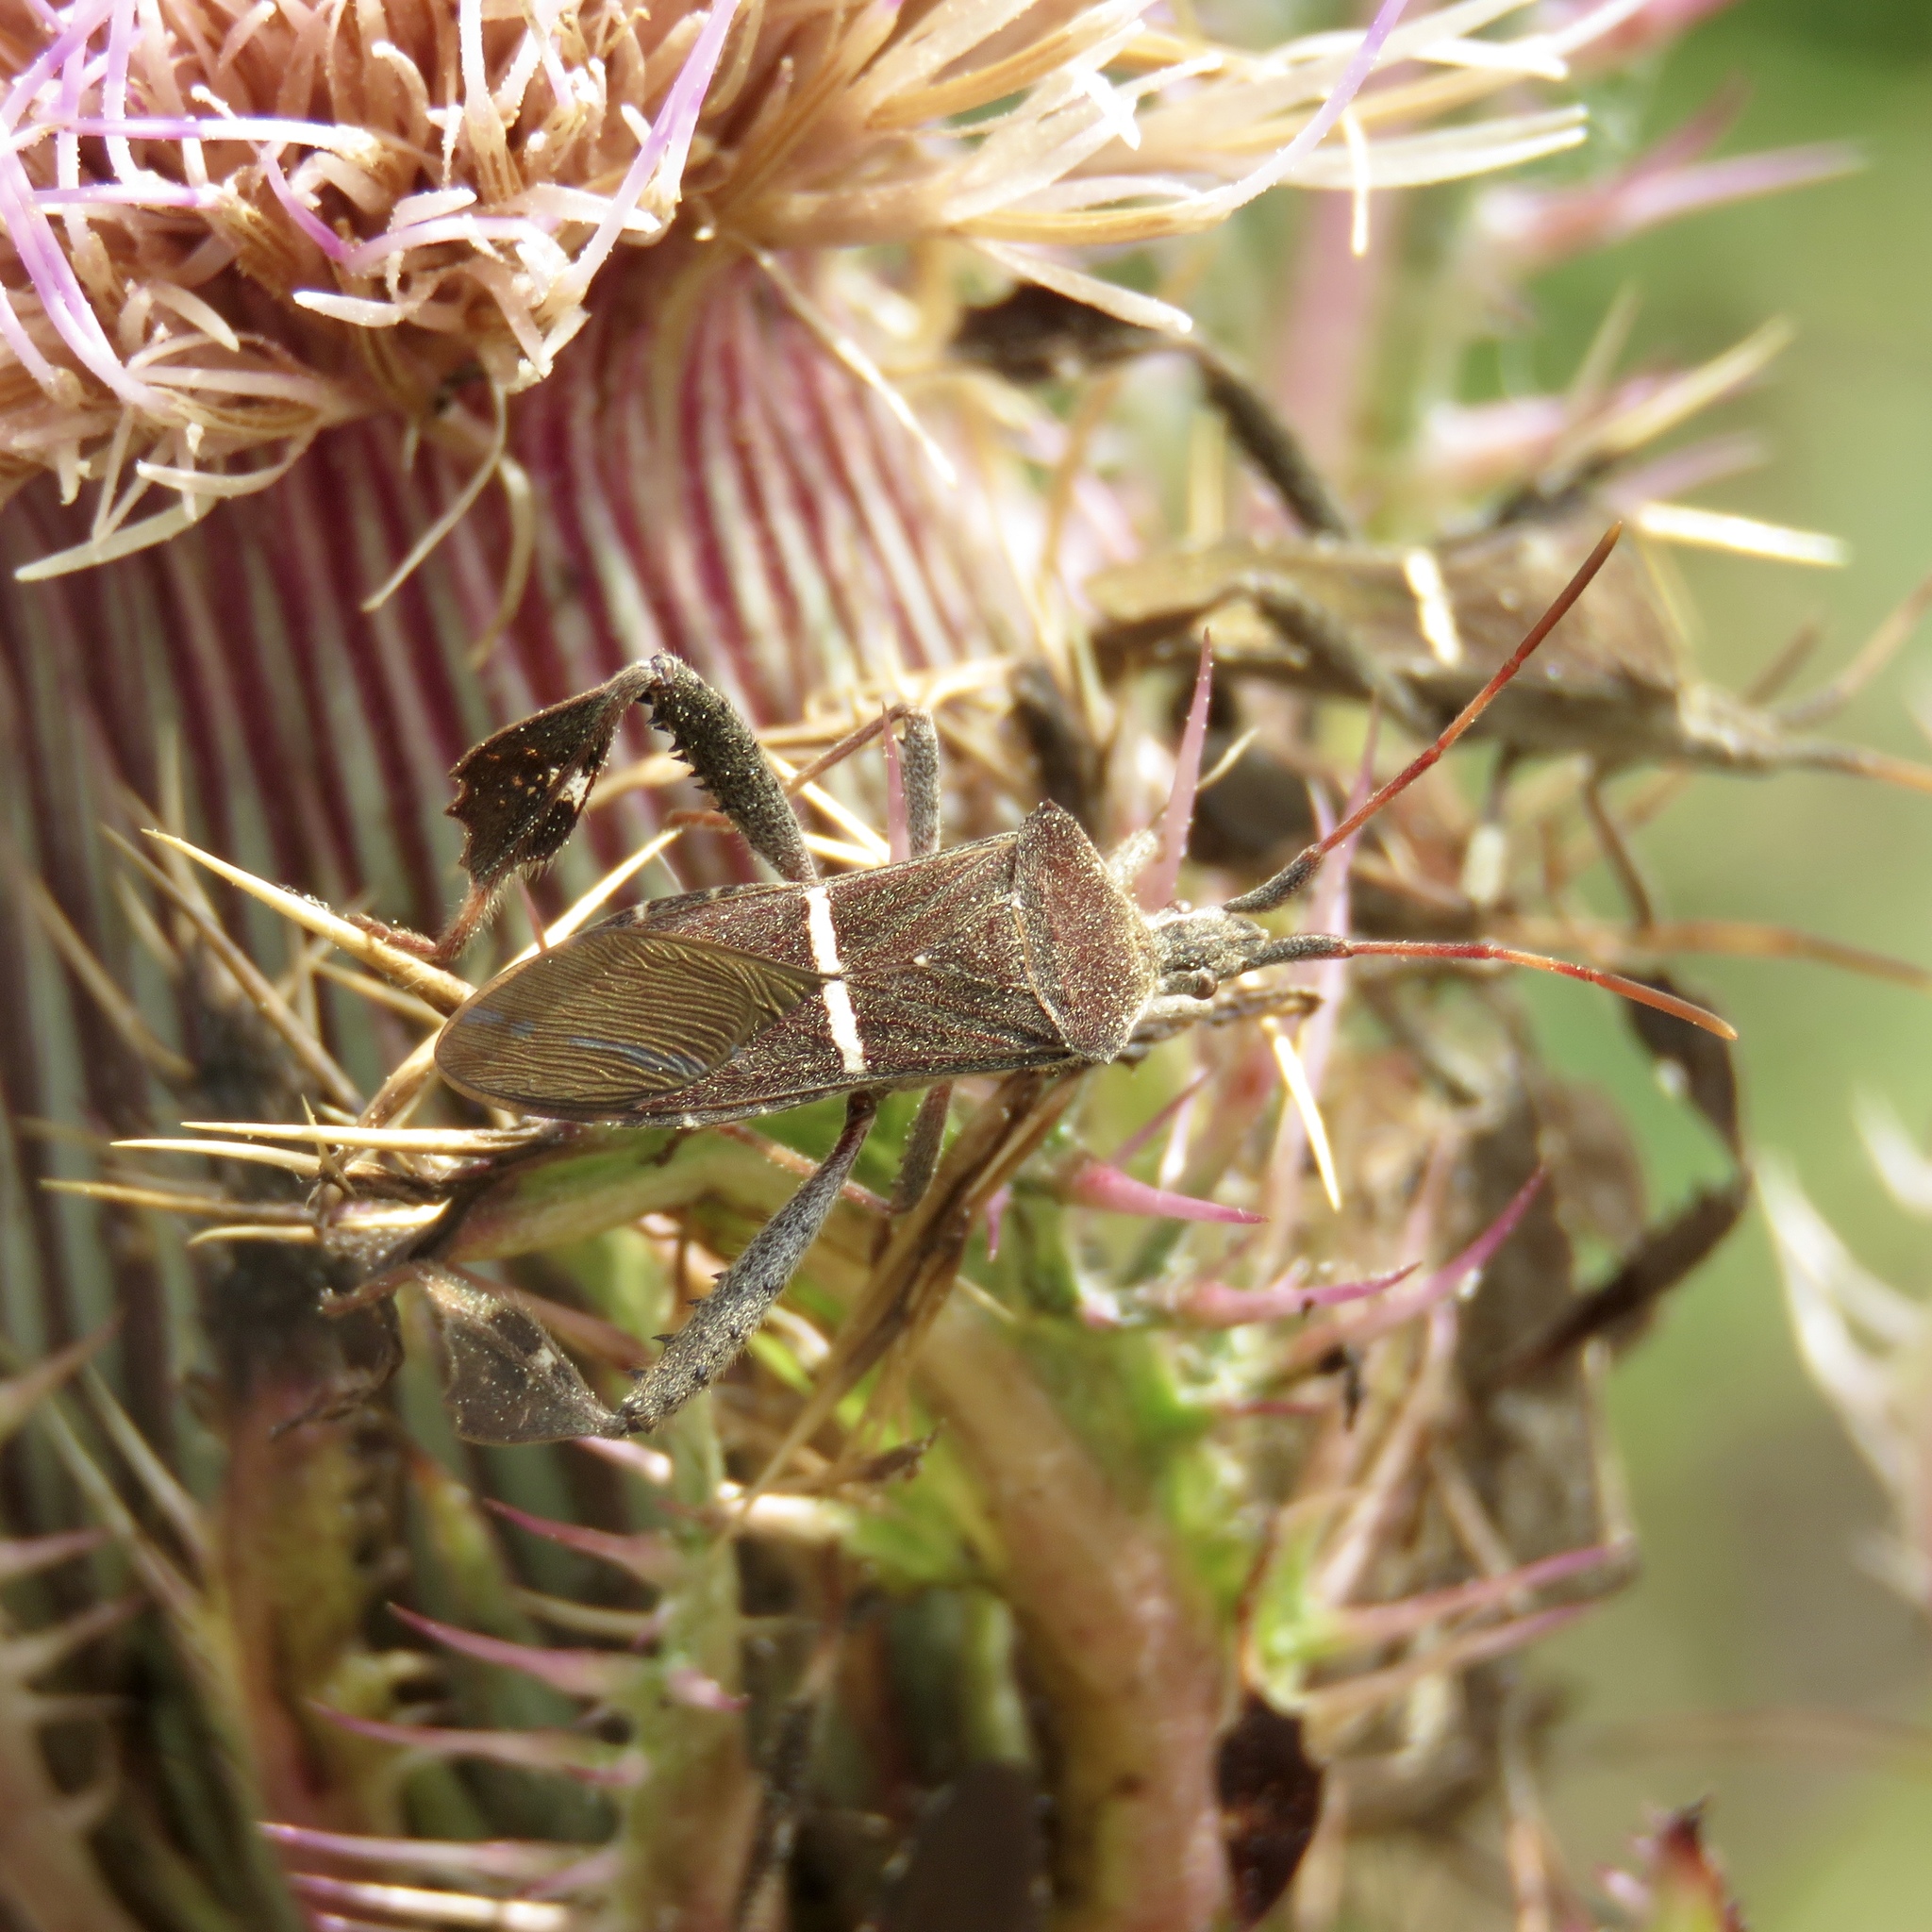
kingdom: Animalia
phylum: Arthropoda
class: Insecta
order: Hemiptera
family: Coreidae
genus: Leptoglossus
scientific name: Leptoglossus phyllopus
